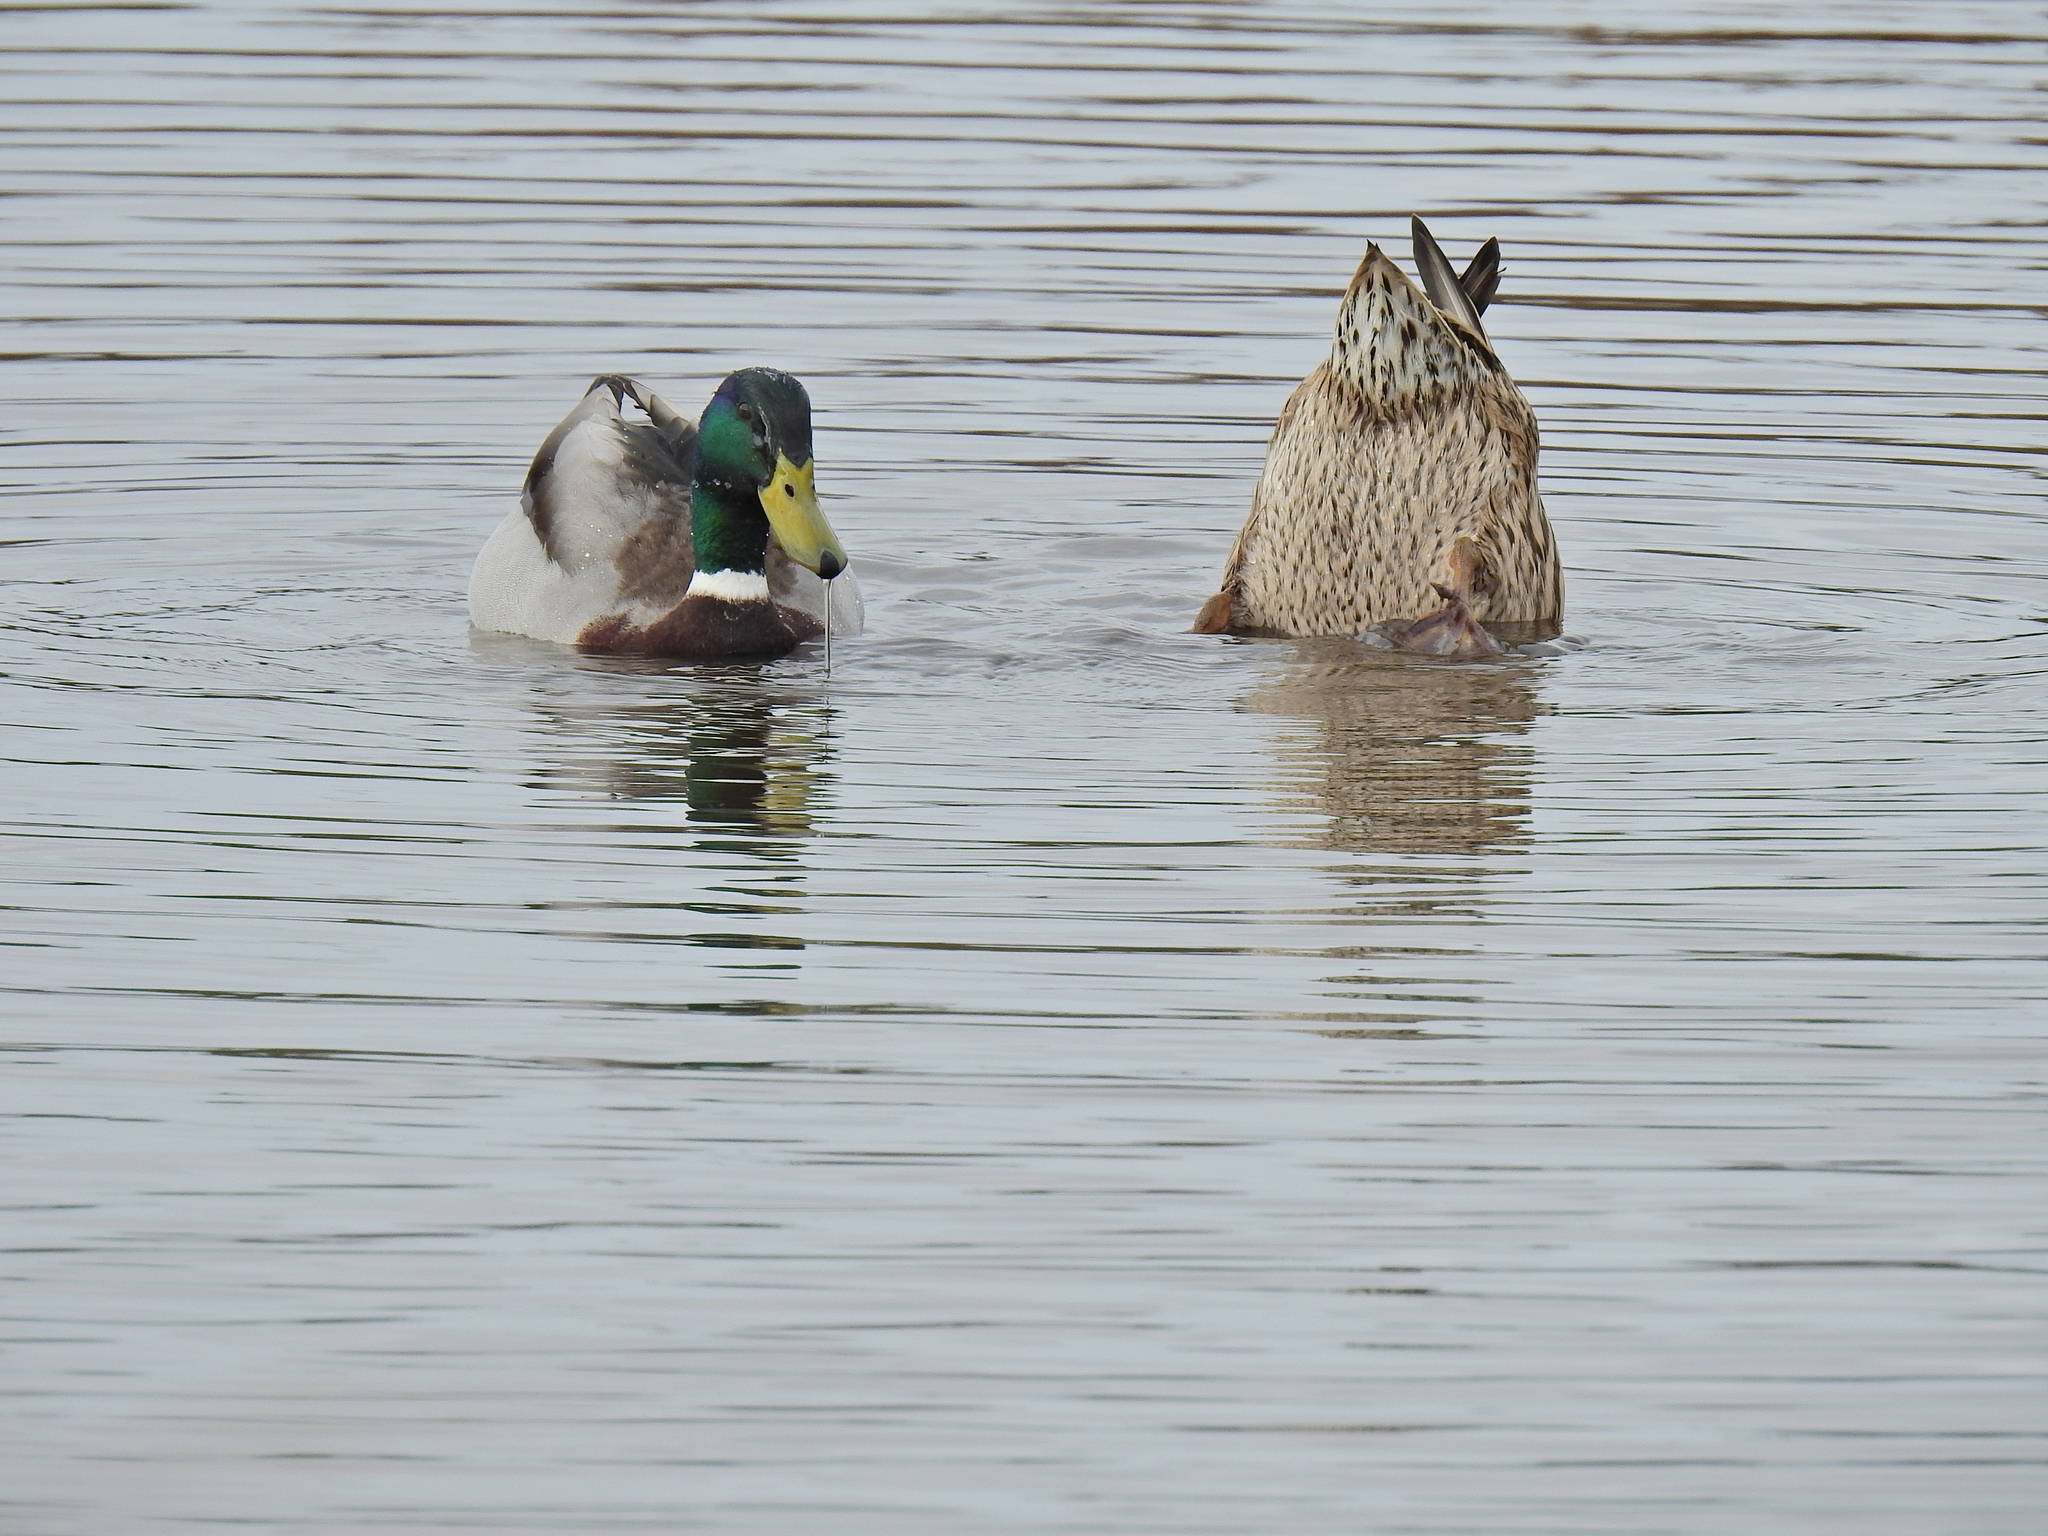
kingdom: Animalia
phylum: Chordata
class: Aves
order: Anseriformes
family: Anatidae
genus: Anas
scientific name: Anas platyrhynchos
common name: Mallard
